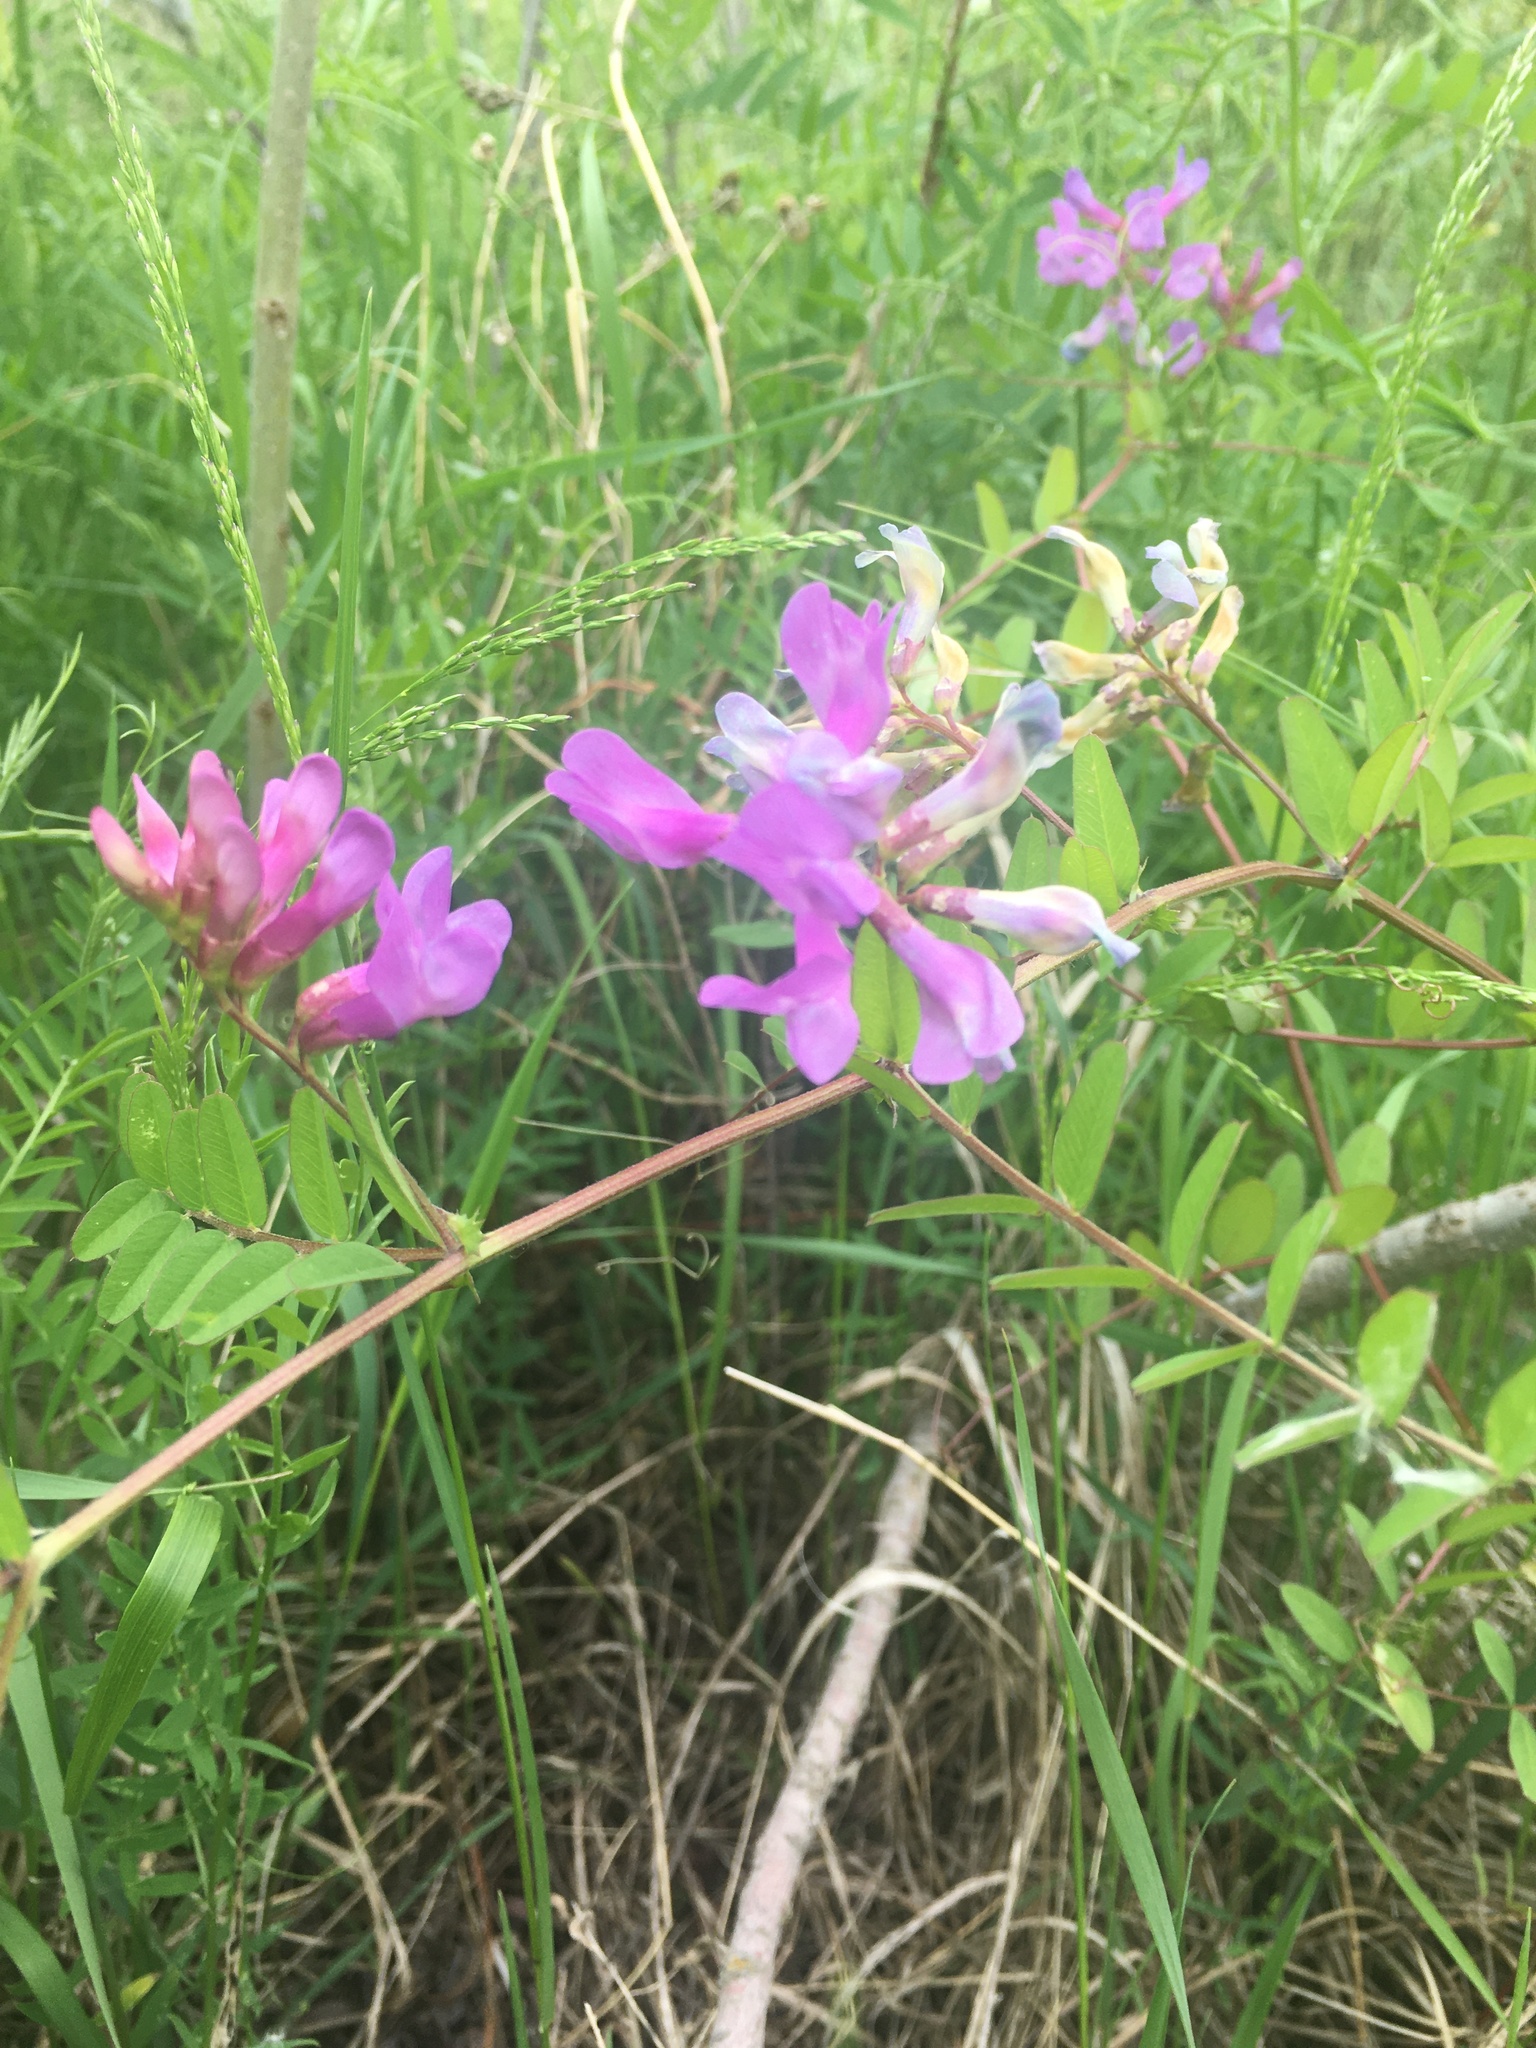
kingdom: Plantae
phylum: Tracheophyta
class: Magnoliopsida
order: Fabales
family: Fabaceae
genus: Vicia
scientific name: Vicia americana
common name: American vetch
